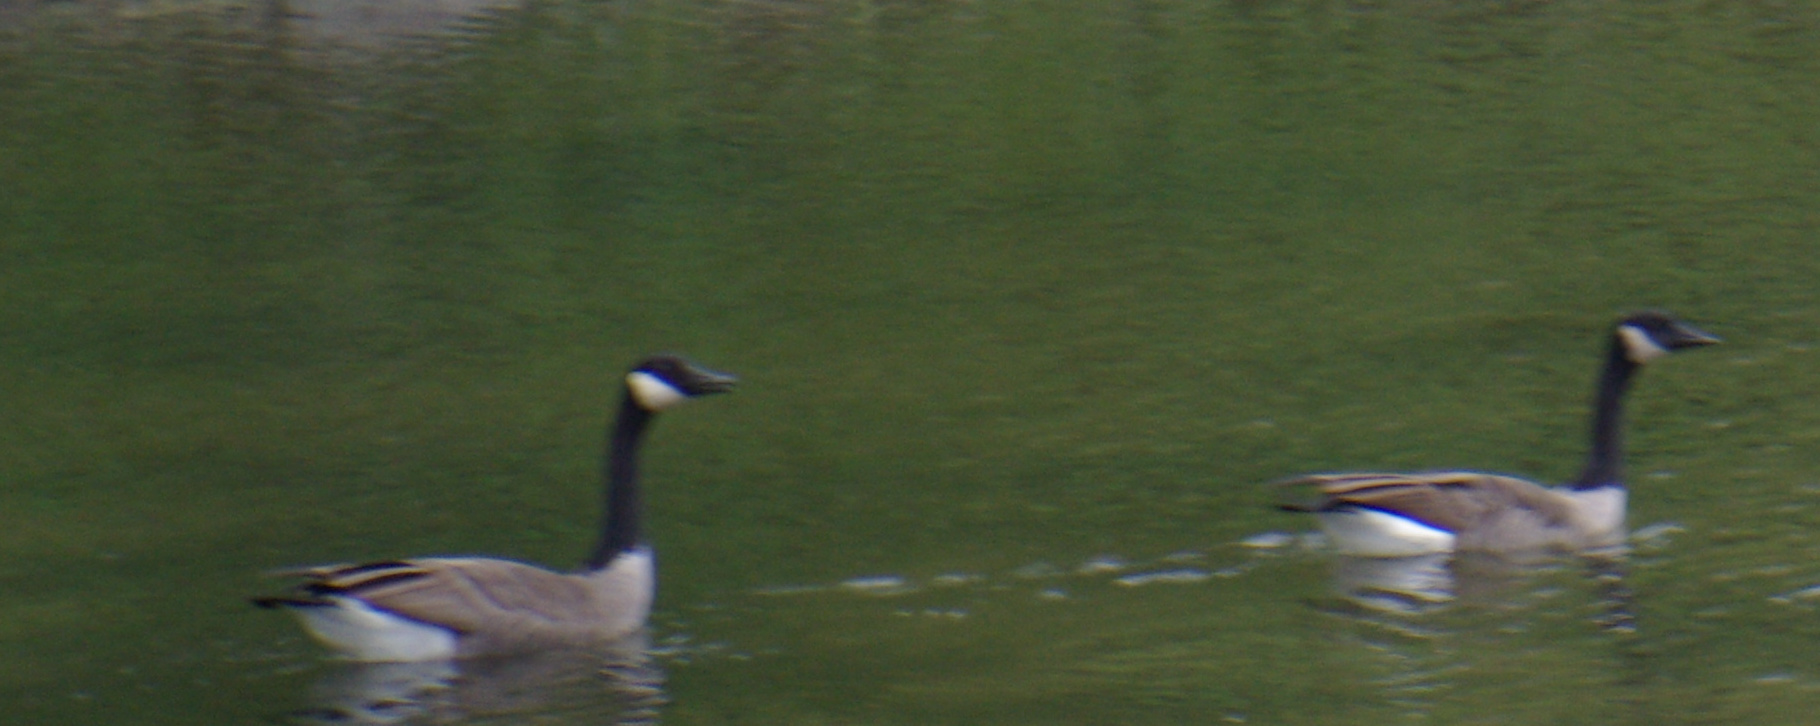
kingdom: Animalia
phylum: Chordata
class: Aves
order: Anseriformes
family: Anatidae
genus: Branta
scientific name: Branta canadensis
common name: Canada goose
